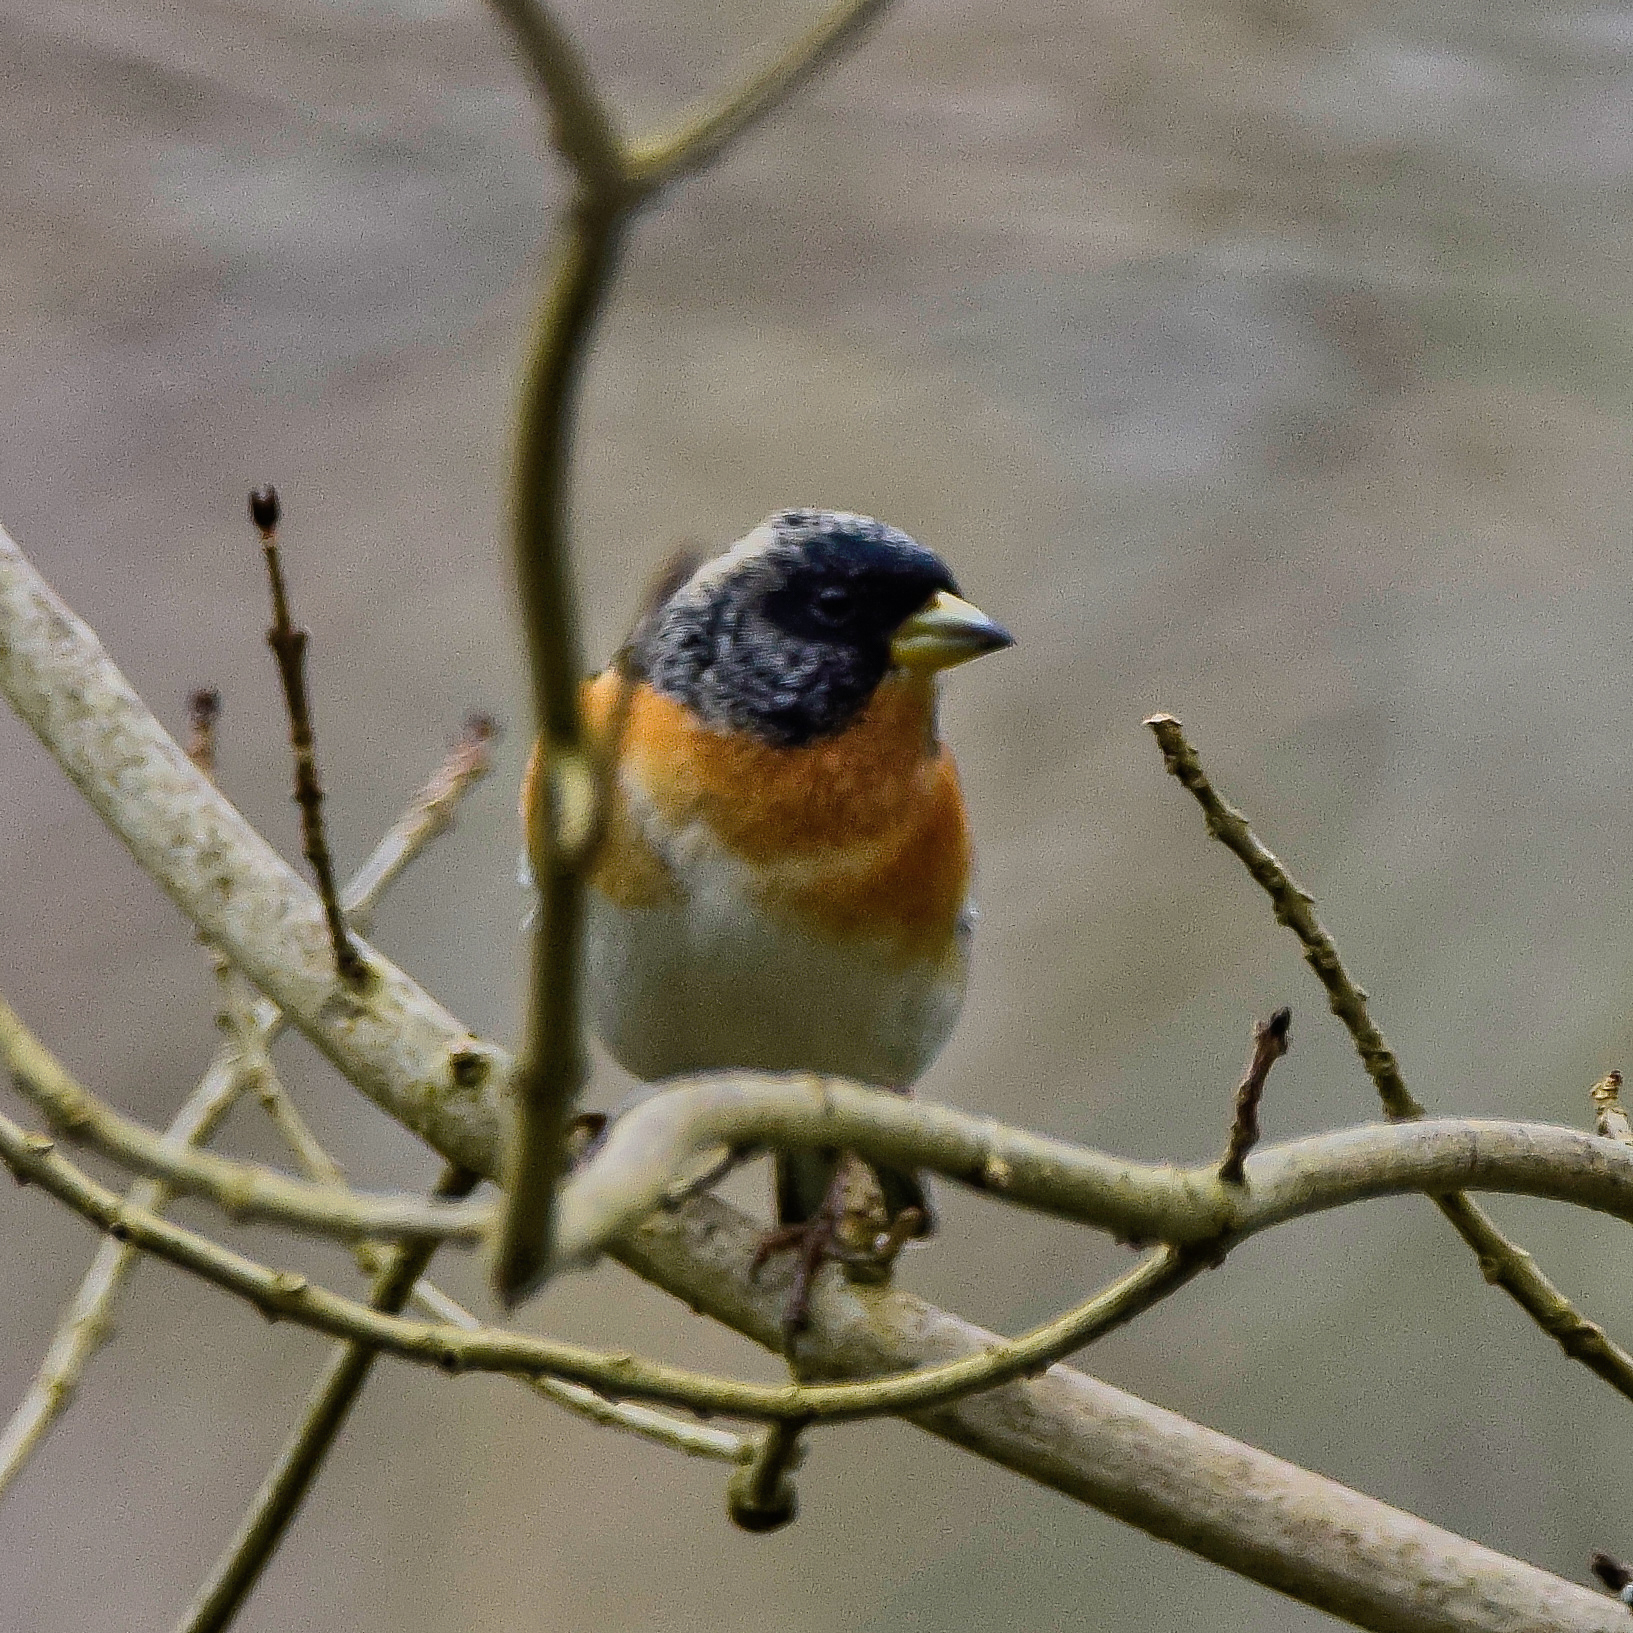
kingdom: Animalia
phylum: Chordata
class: Aves
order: Passeriformes
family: Fringillidae
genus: Fringilla
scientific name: Fringilla montifringilla
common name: Brambling
